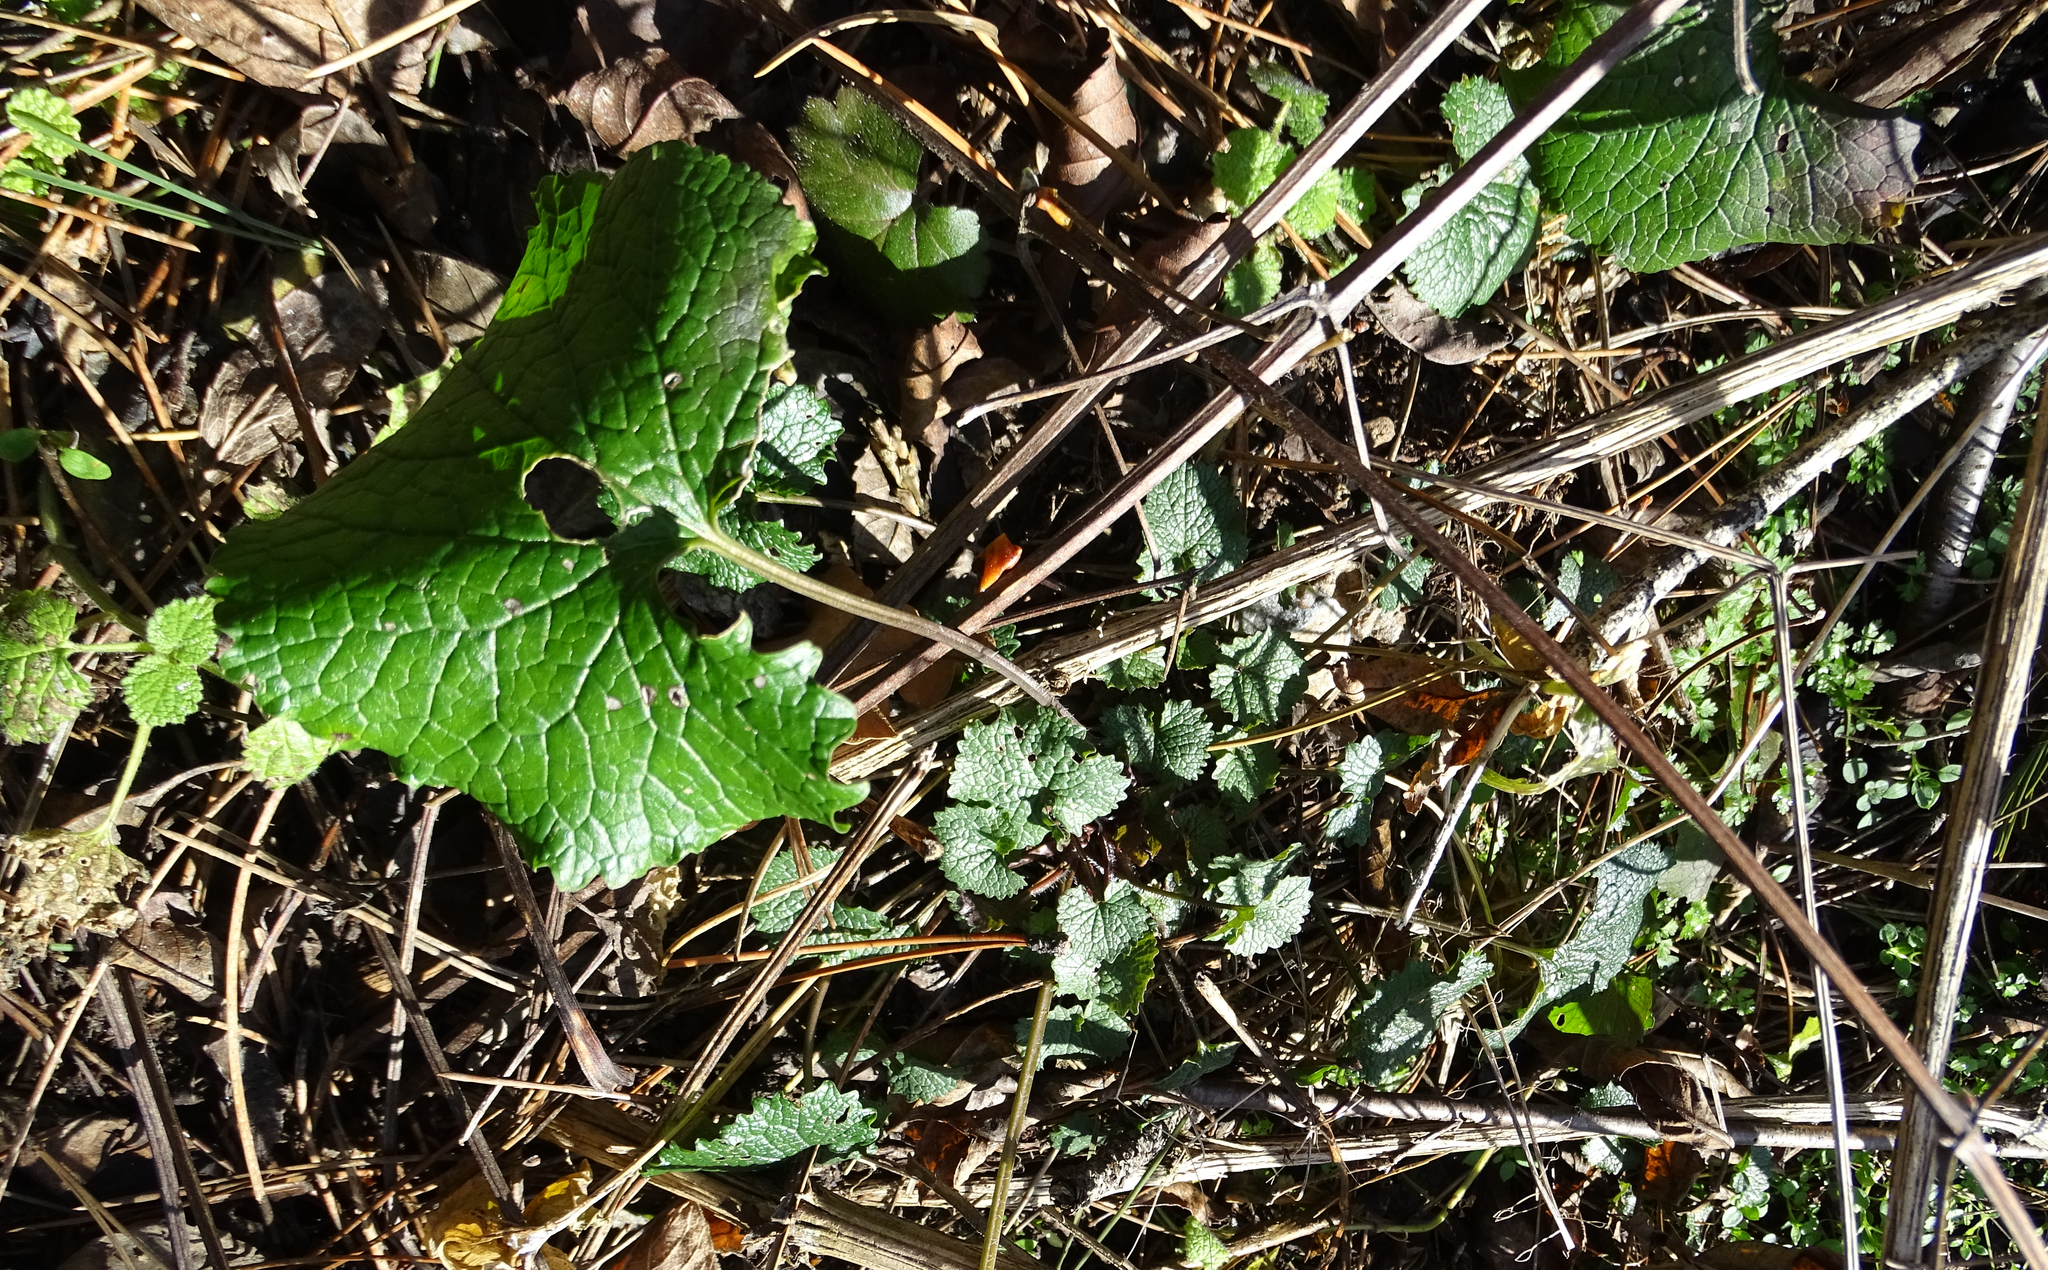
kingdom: Plantae
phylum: Tracheophyta
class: Magnoliopsida
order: Brassicales
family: Brassicaceae
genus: Alliaria
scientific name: Alliaria petiolata
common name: Garlic mustard
